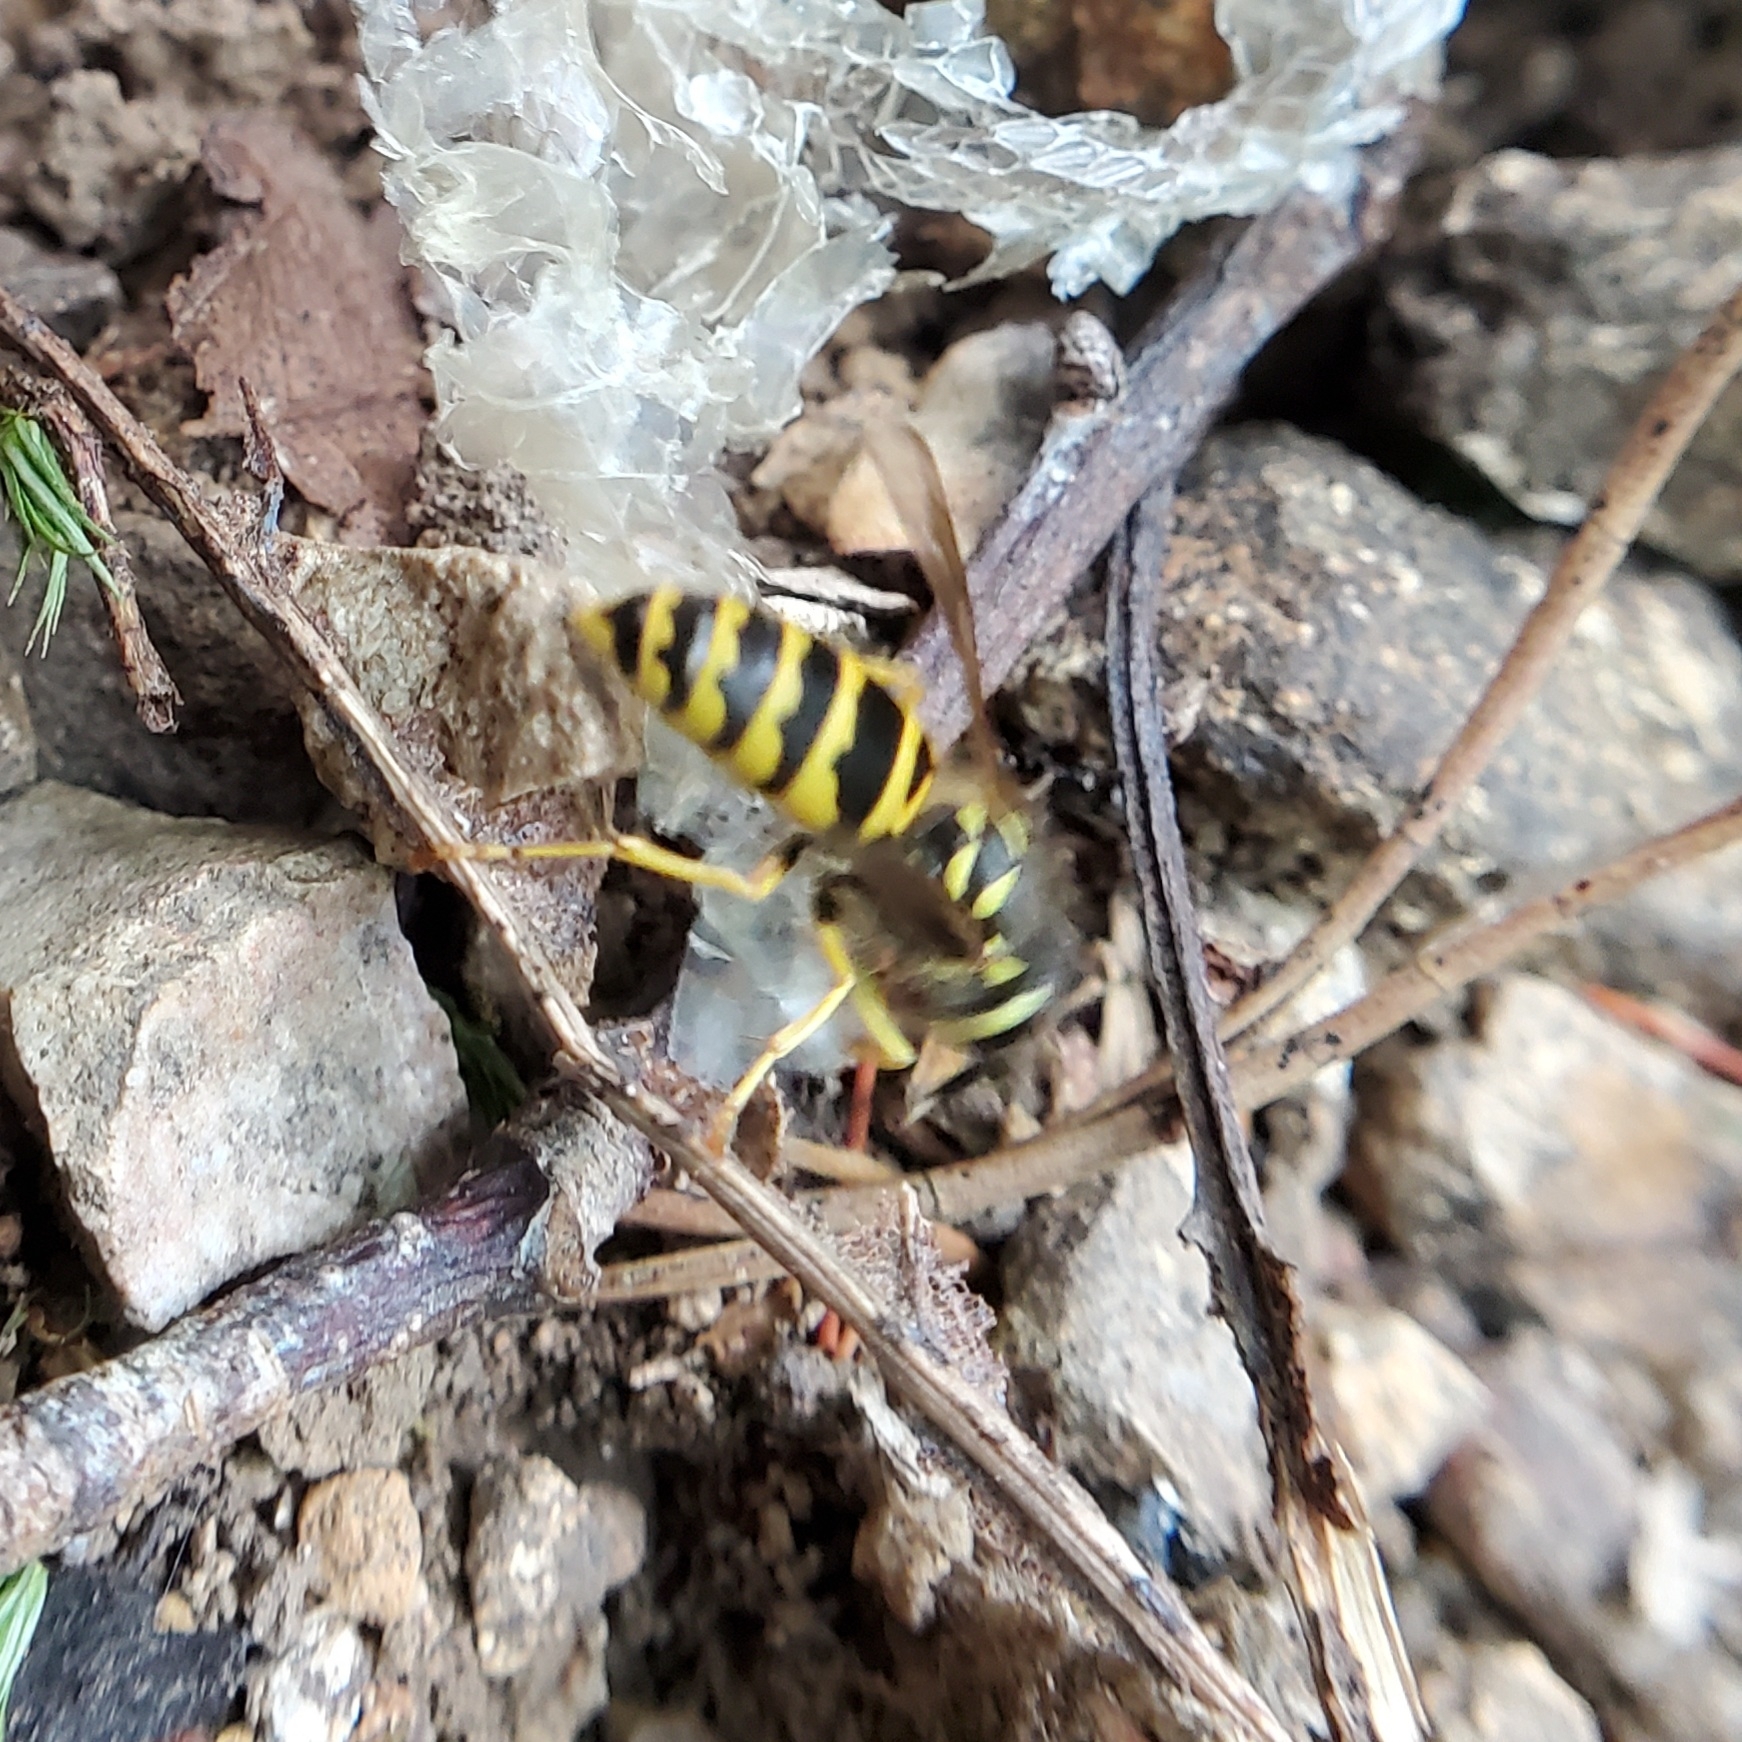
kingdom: Animalia
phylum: Arthropoda
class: Insecta
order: Hymenoptera
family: Vespidae
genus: Vespula
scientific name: Vespula maculifrons
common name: Eastern yellowjacket
